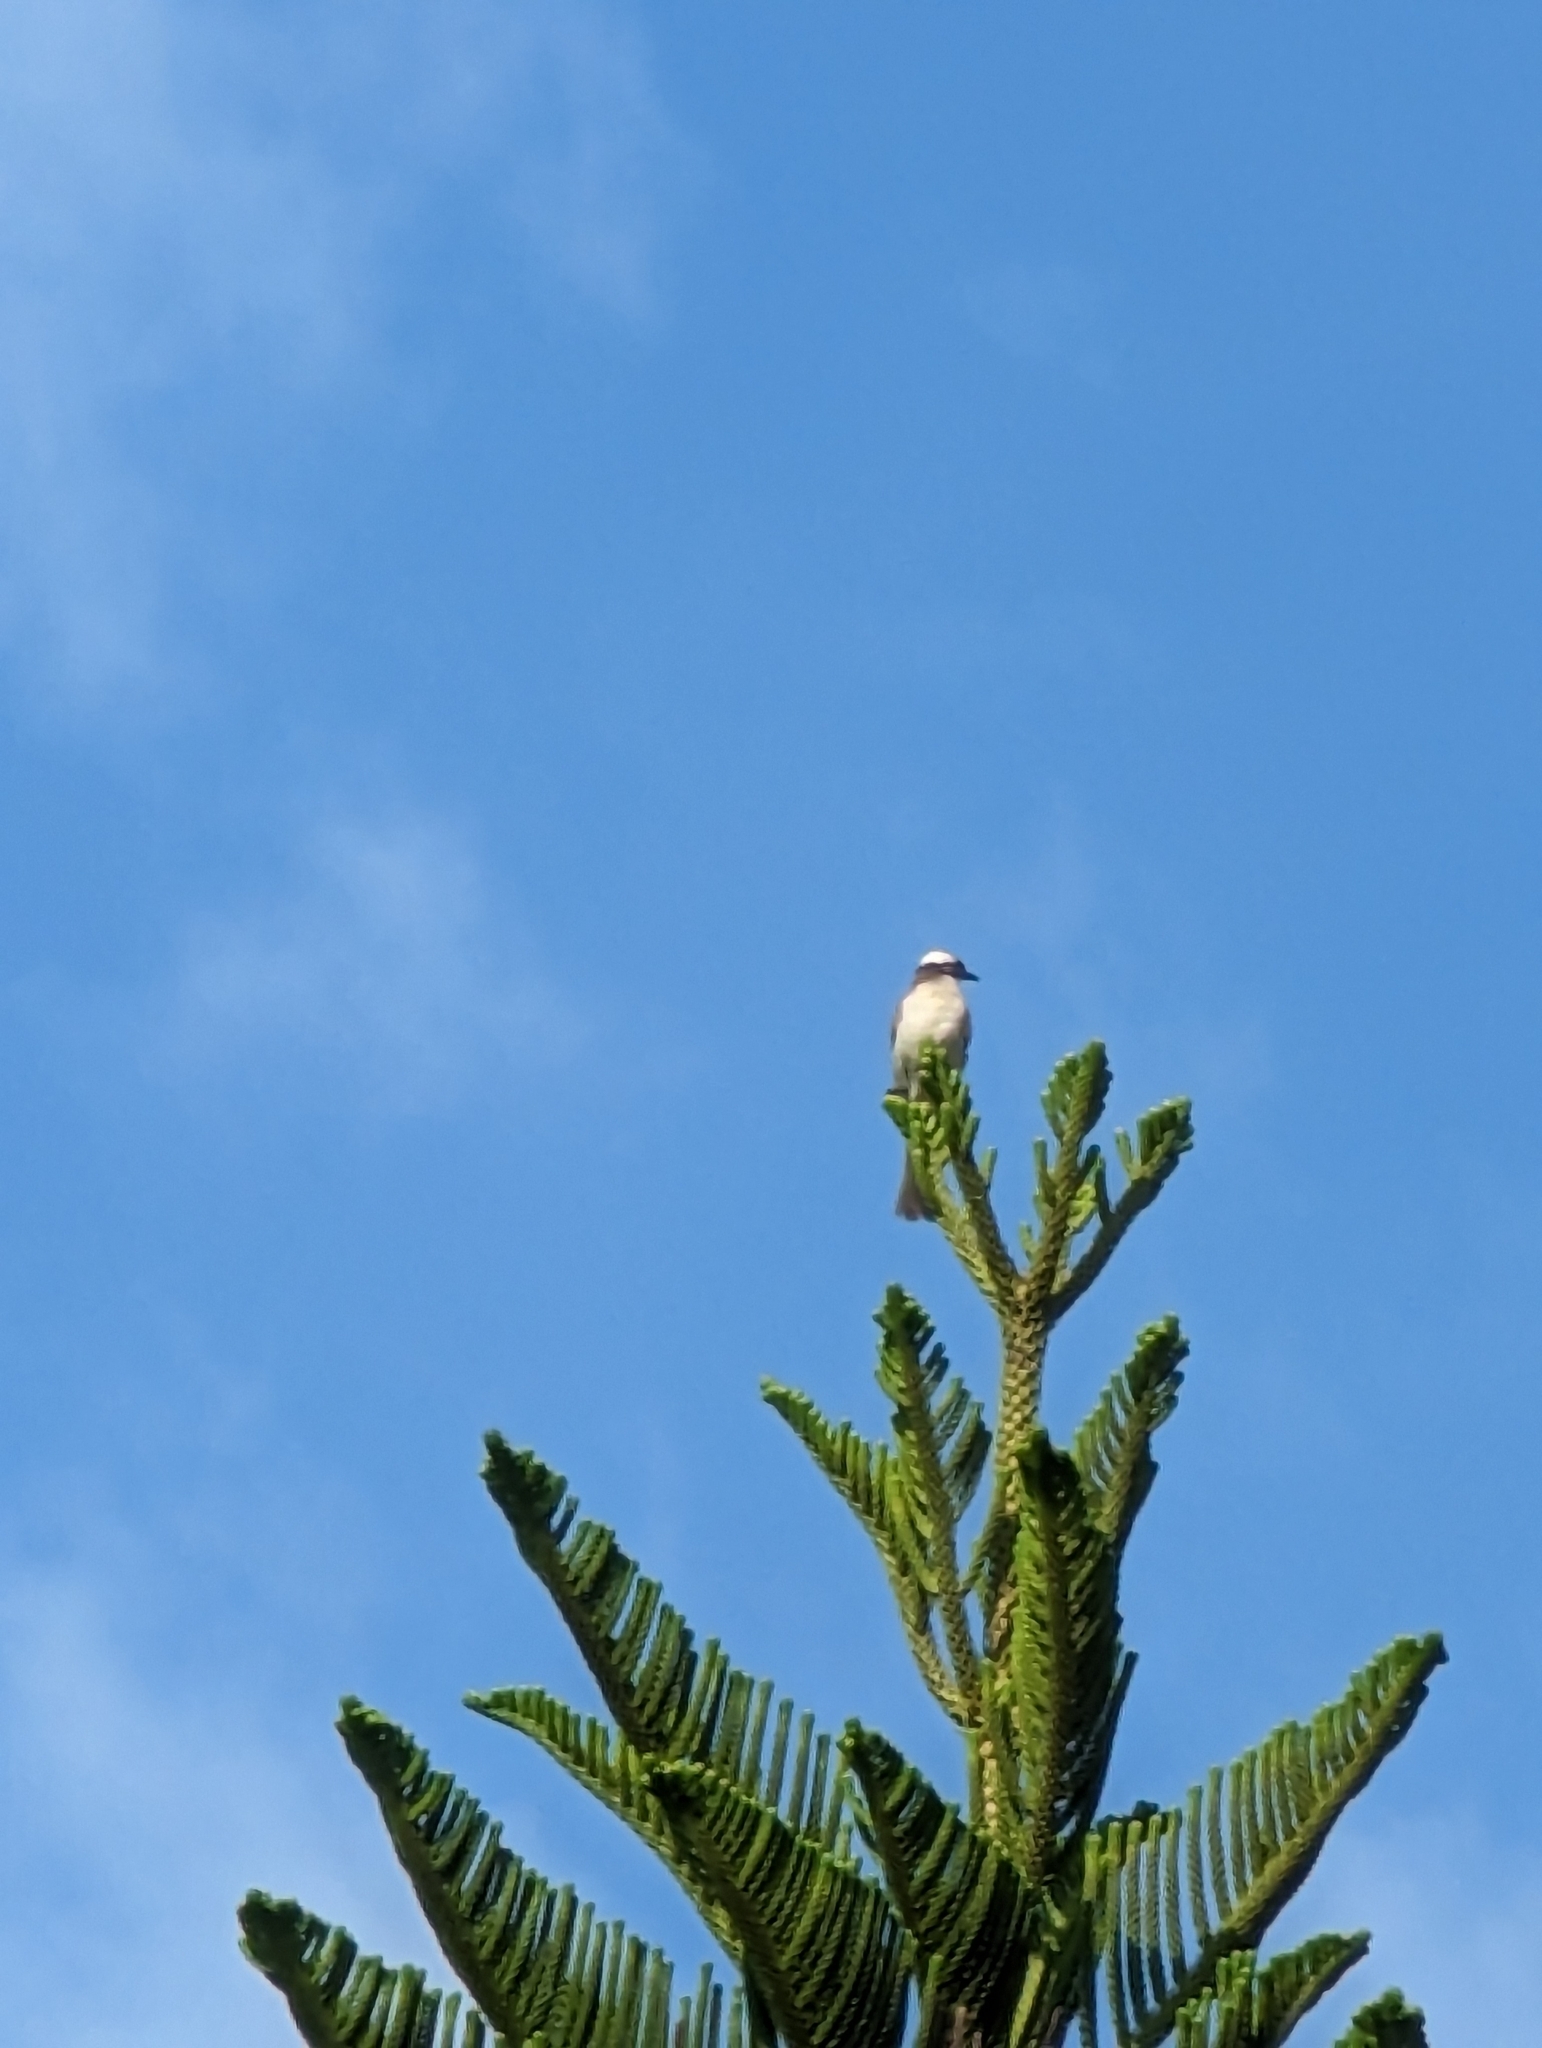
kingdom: Animalia
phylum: Chordata
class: Aves
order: Passeriformes
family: Pycnonotidae
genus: Pycnonotus
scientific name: Pycnonotus sinensis
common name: Light-vented bulbul
